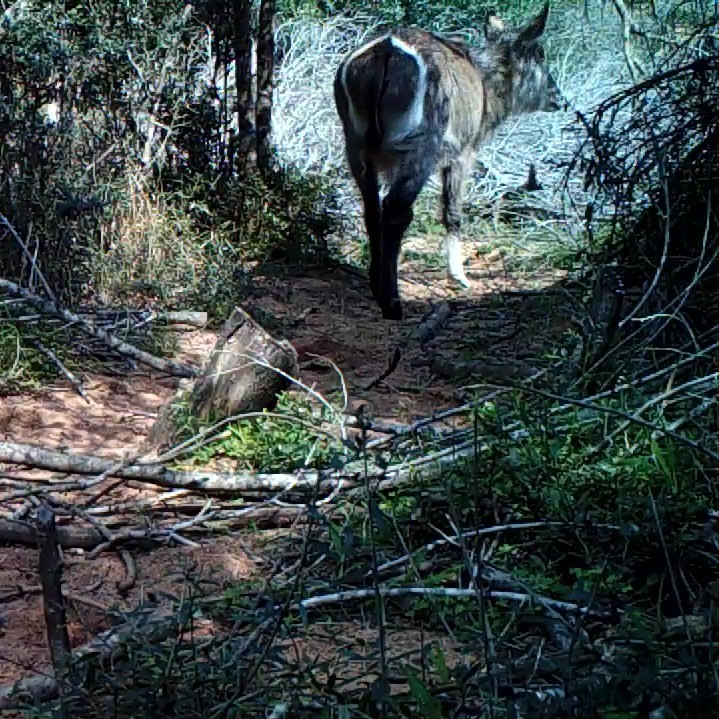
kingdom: Animalia
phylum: Chordata
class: Mammalia
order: Artiodactyla
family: Bovidae
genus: Kobus
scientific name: Kobus ellipsiprymnus
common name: Waterbuck
